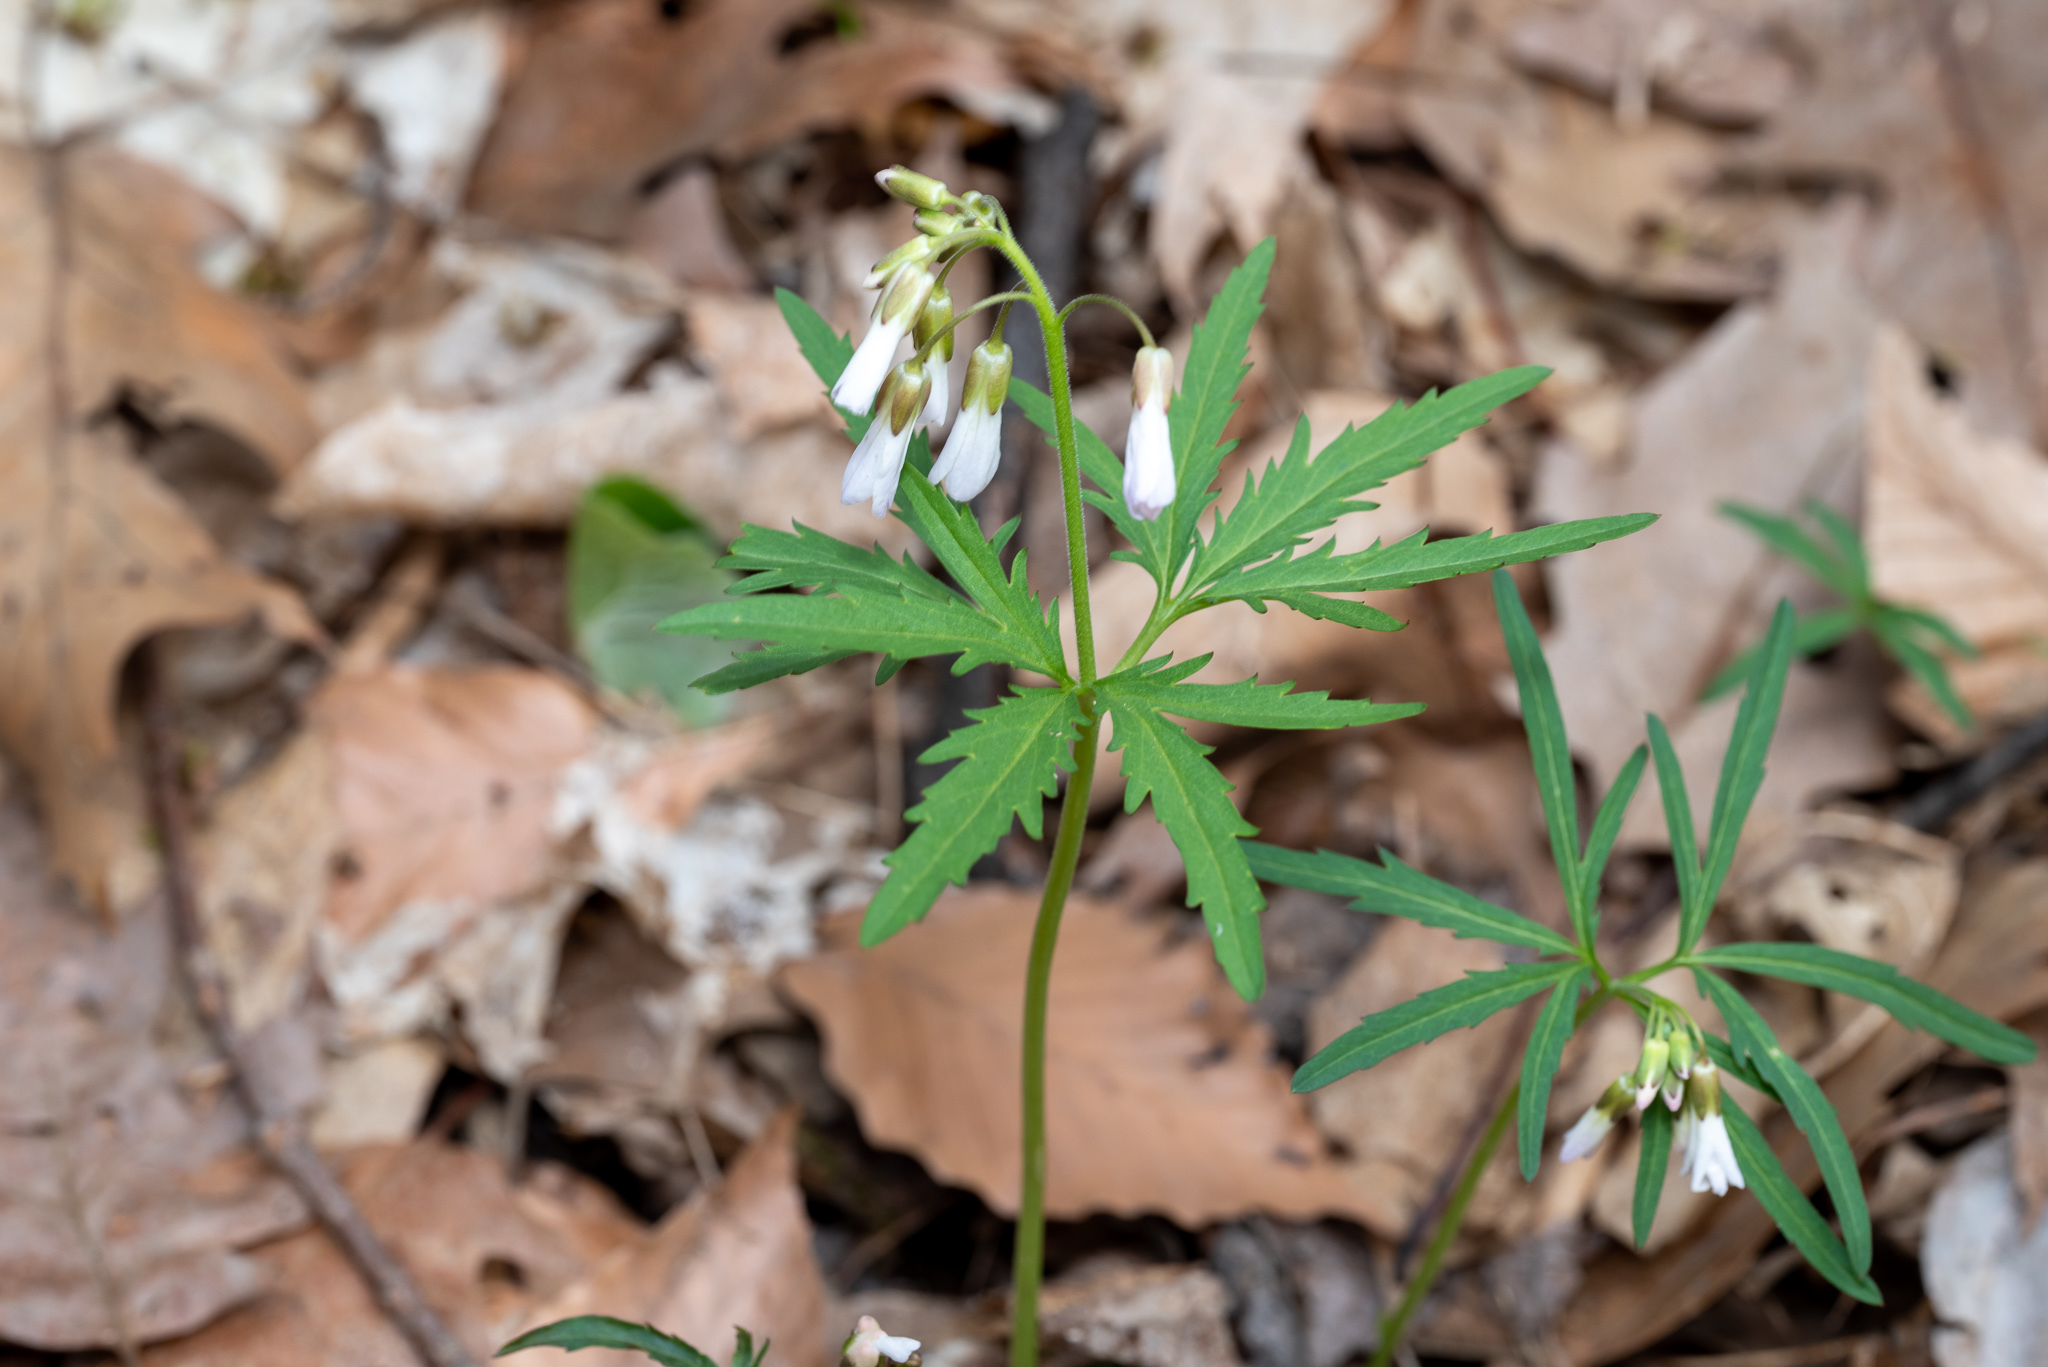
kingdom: Plantae
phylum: Tracheophyta
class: Magnoliopsida
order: Brassicales
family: Brassicaceae
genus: Cardamine
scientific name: Cardamine concatenata
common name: Cut-leaf toothcup
